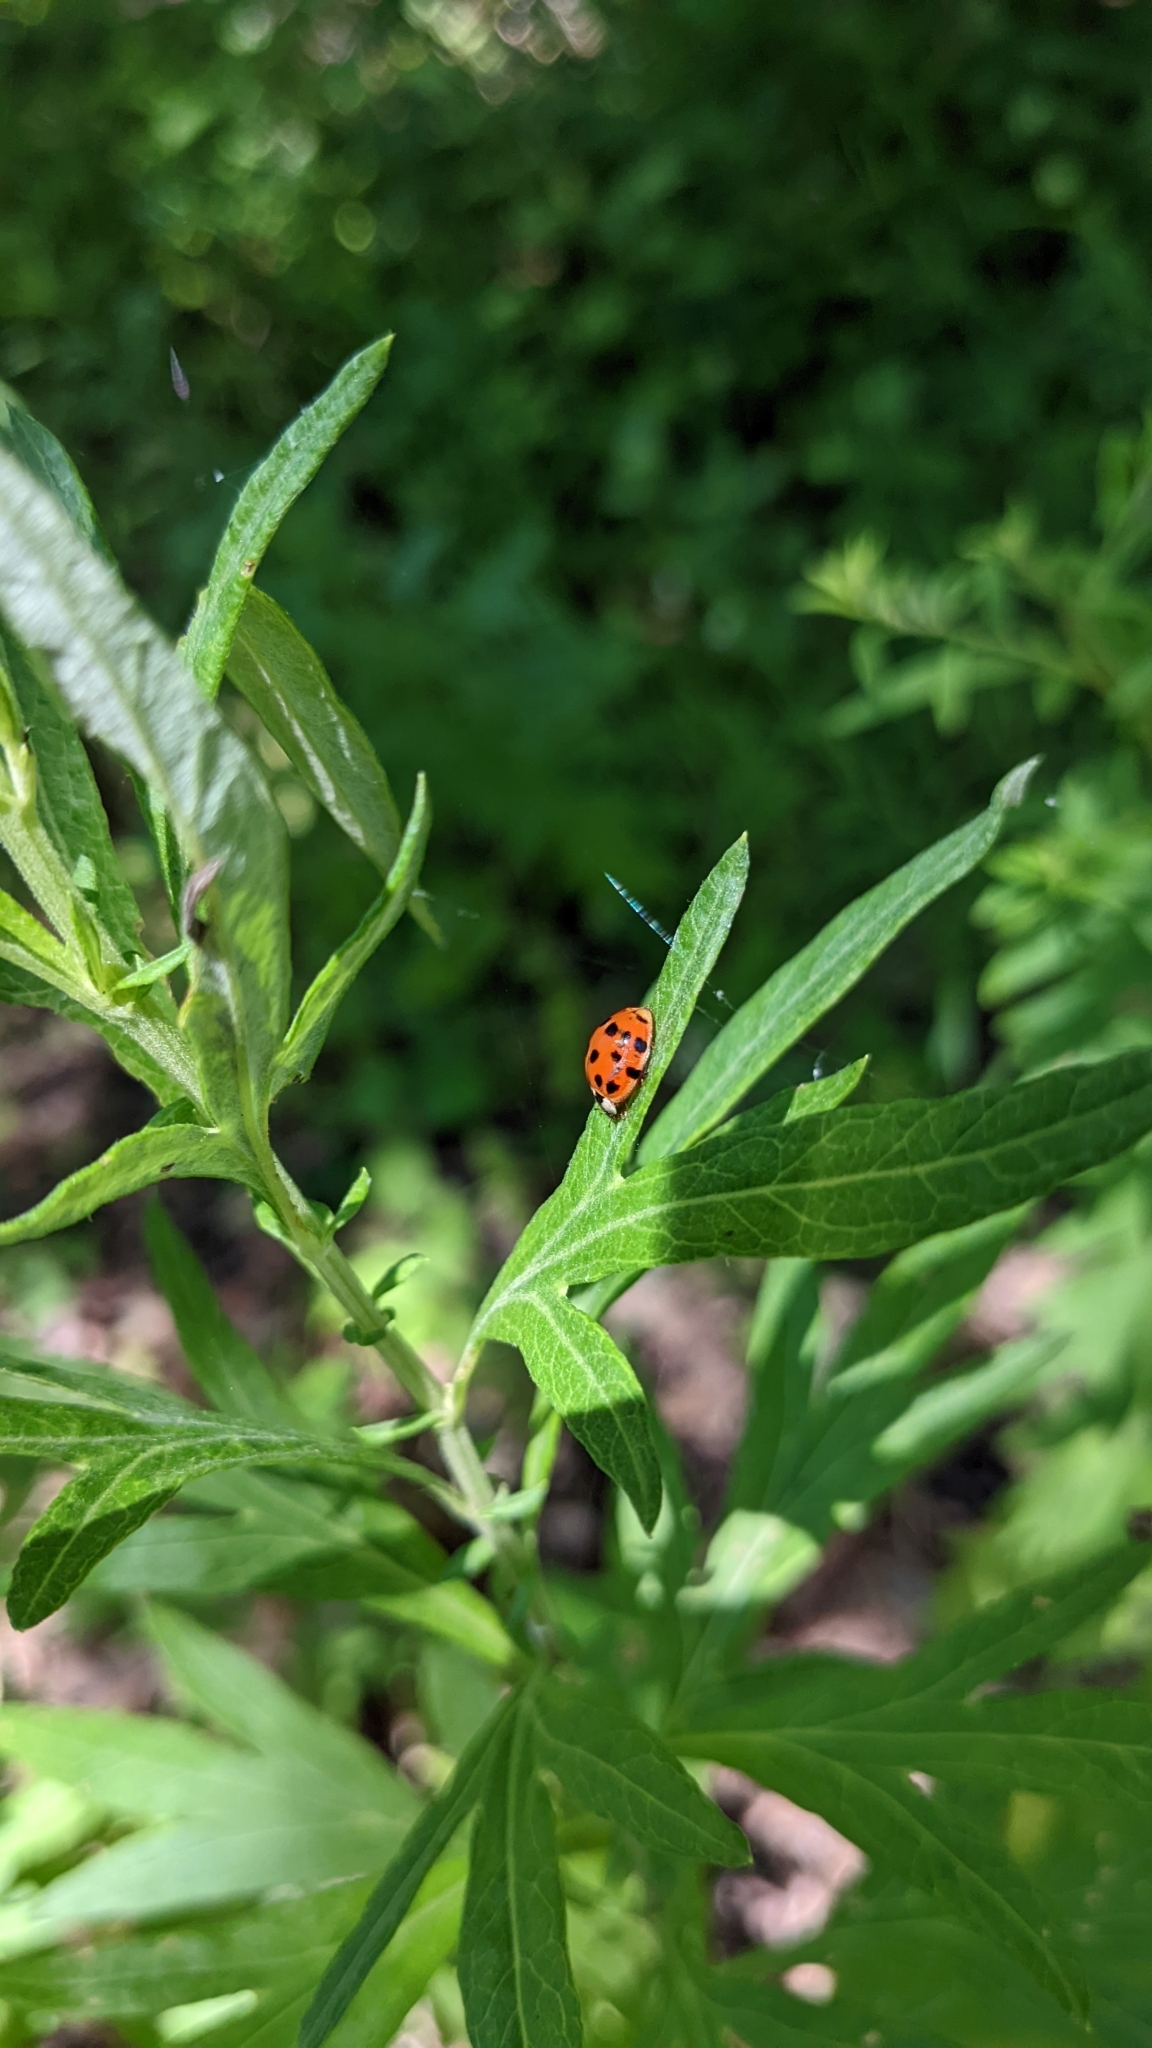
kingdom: Animalia
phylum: Arthropoda
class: Insecta
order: Coleoptera
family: Coccinellidae
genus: Harmonia
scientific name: Harmonia axyridis
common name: Harlequin ladybird
